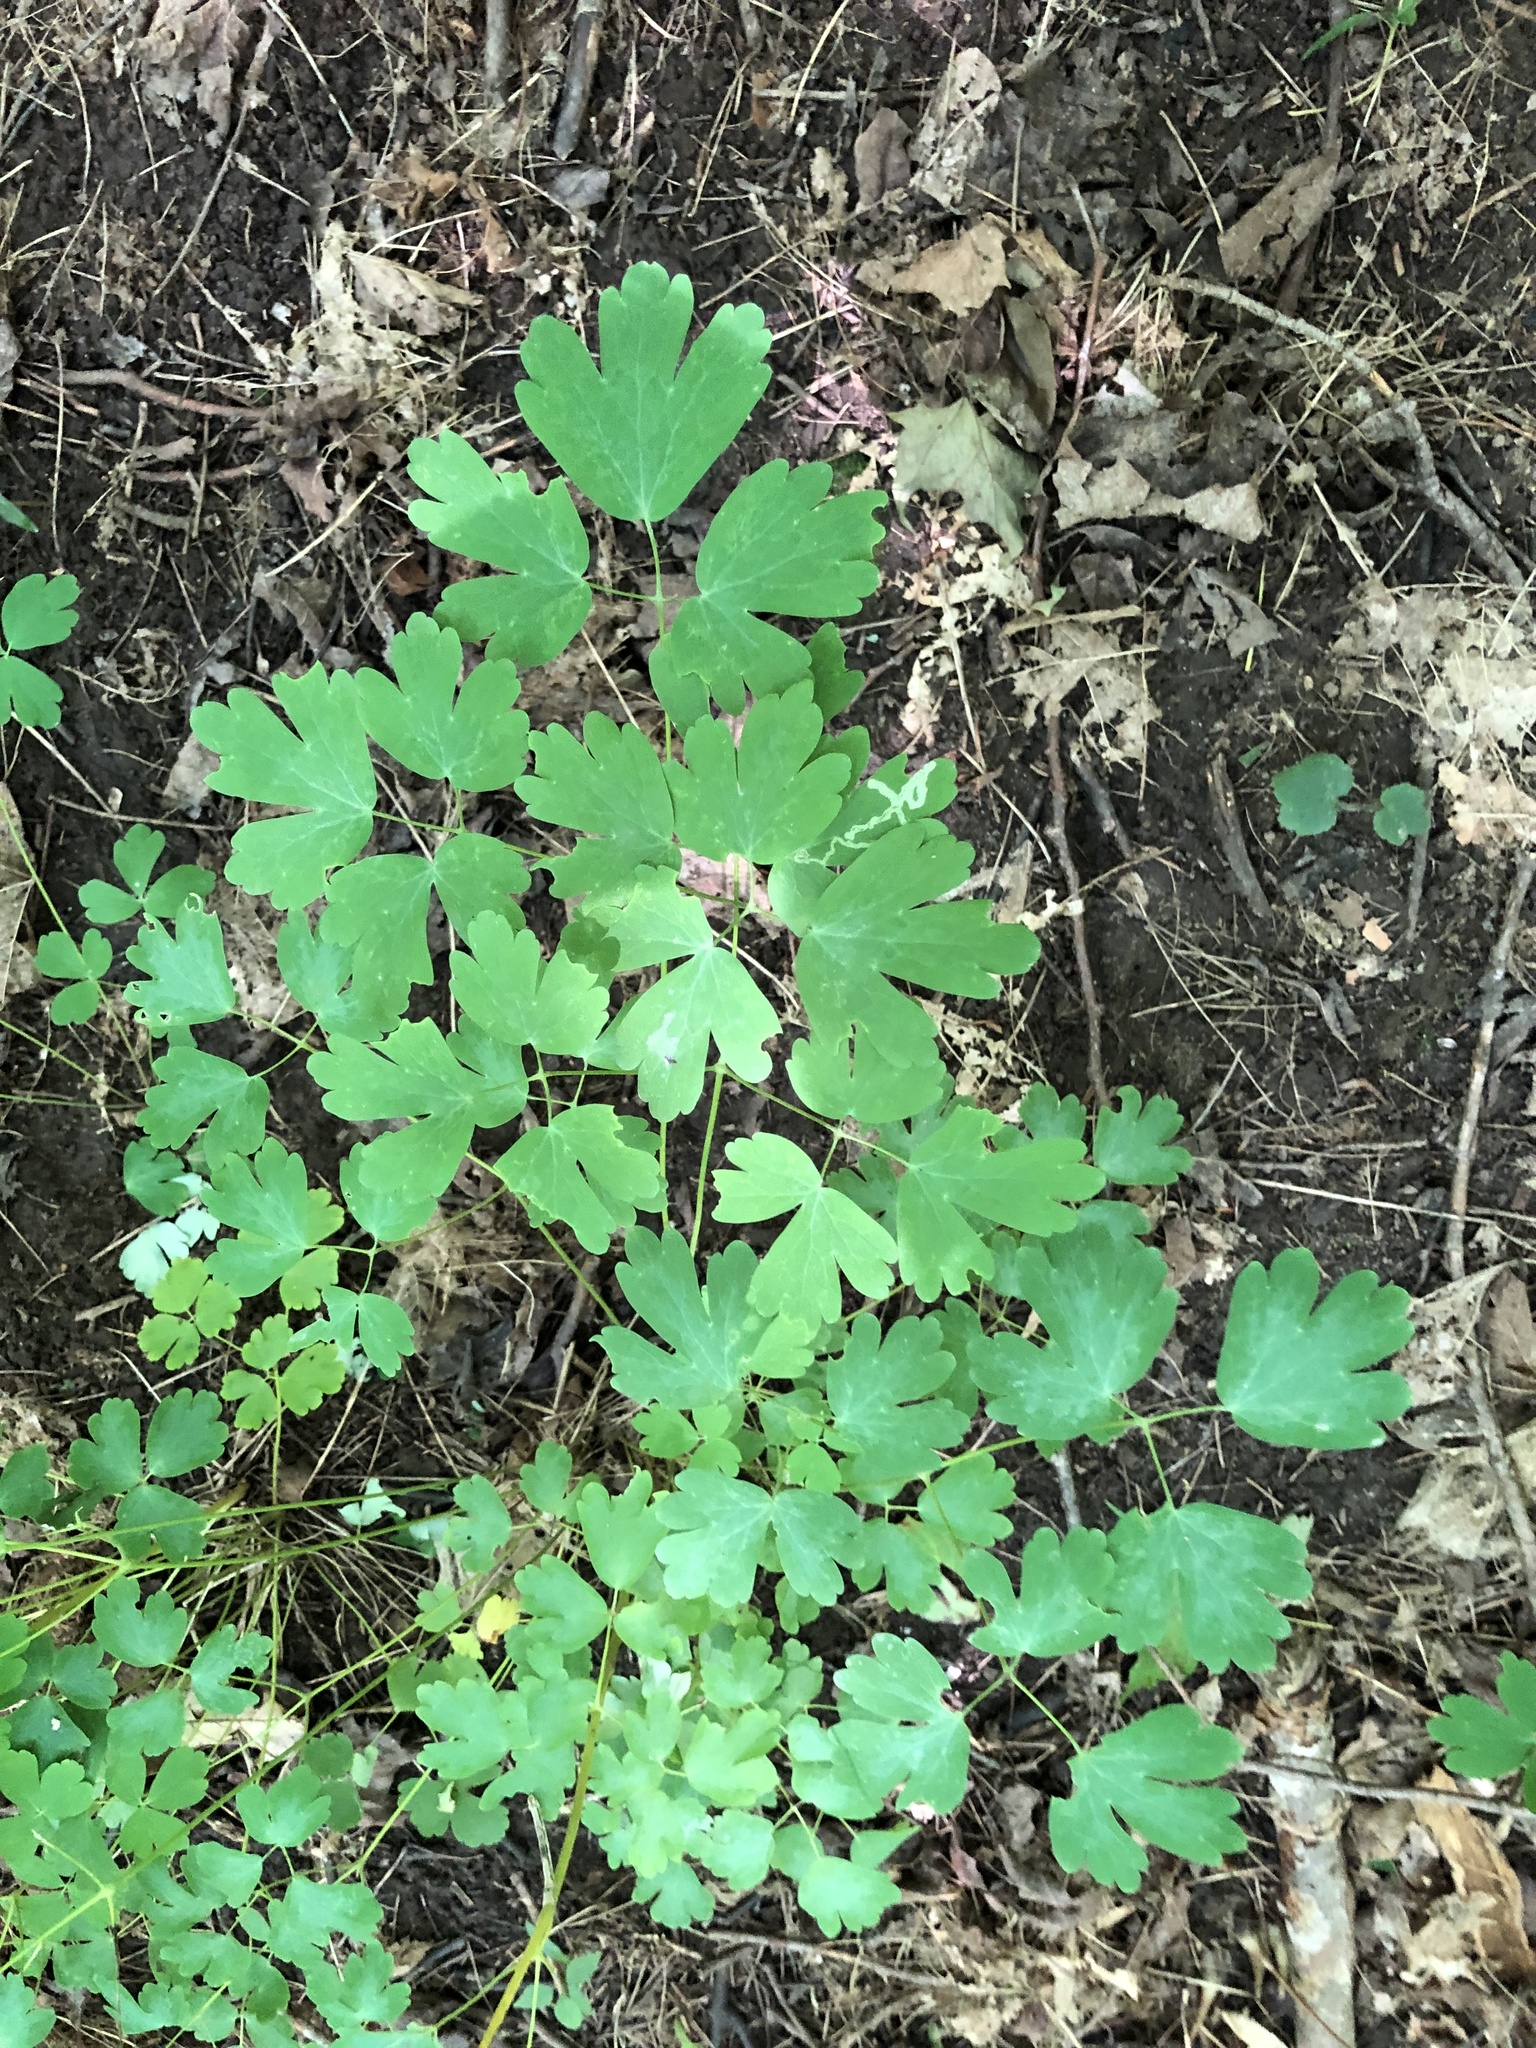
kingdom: Plantae
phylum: Tracheophyta
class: Magnoliopsida
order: Ranunculales
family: Ranunculaceae
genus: Aquilegia
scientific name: Aquilegia canadensis
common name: American columbine
